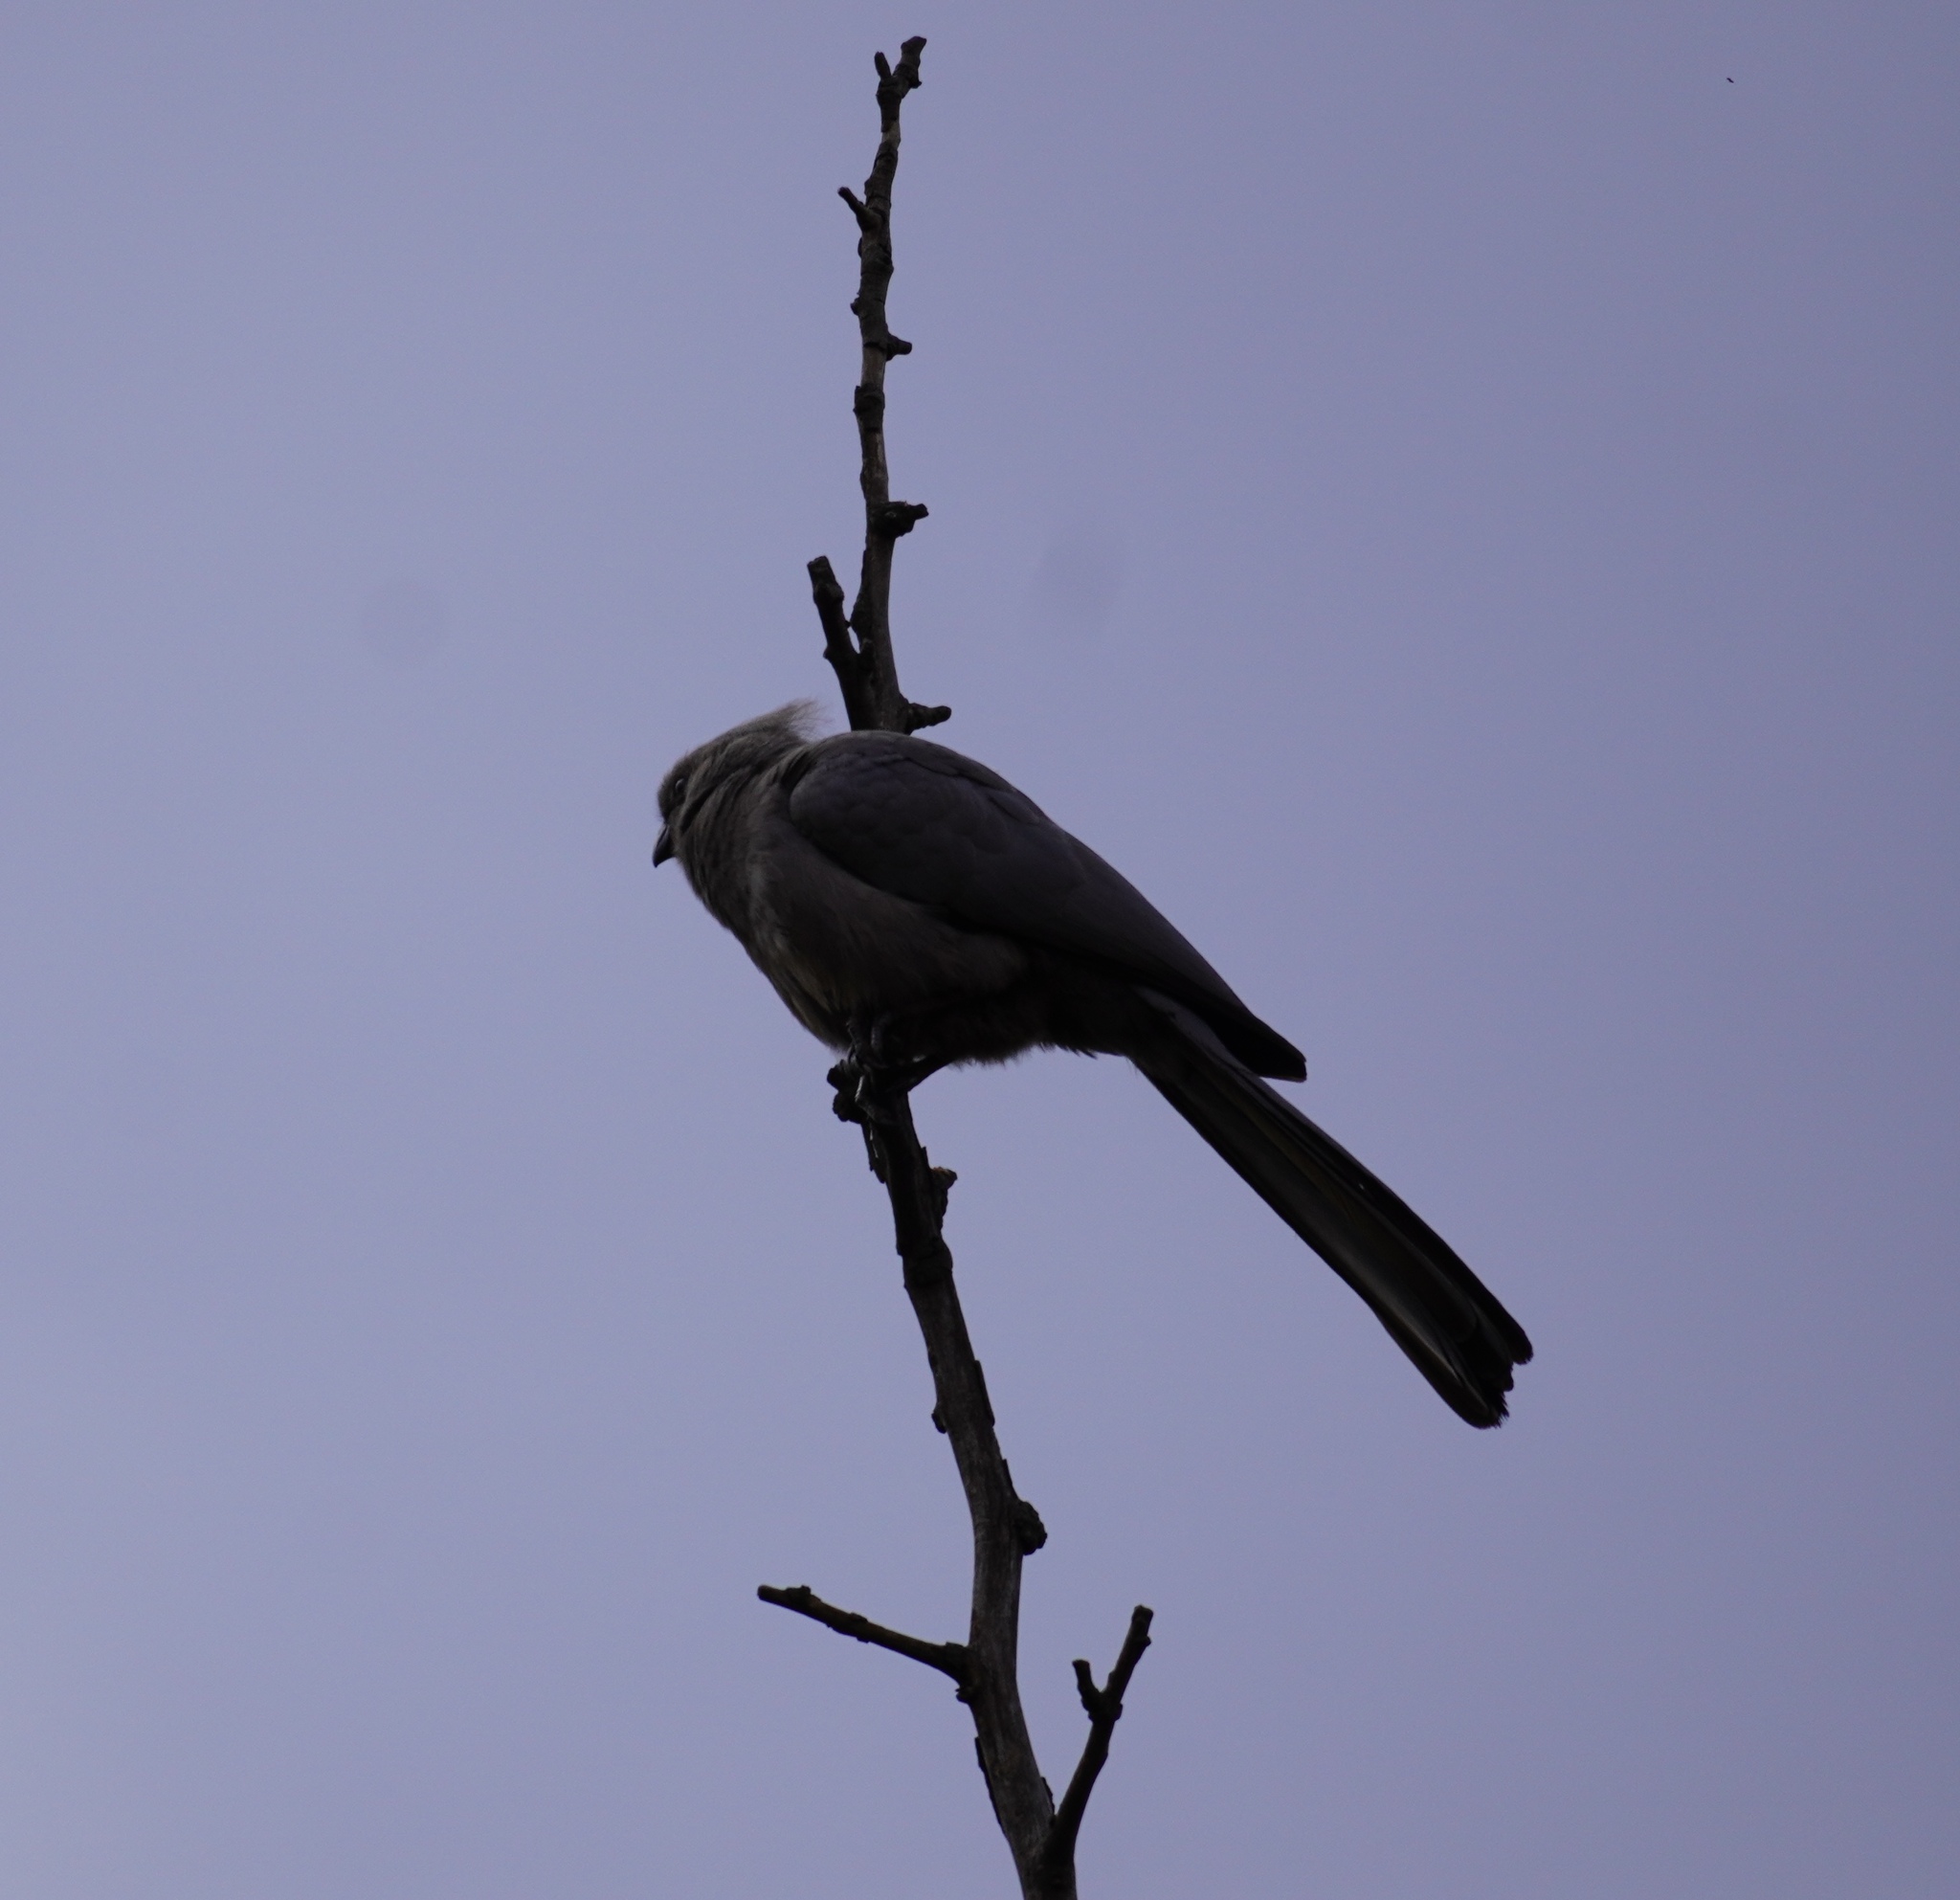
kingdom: Animalia
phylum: Chordata
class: Aves
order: Musophagiformes
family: Musophagidae
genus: Corythaixoides
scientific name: Corythaixoides concolor
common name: Grey go-away-bird
